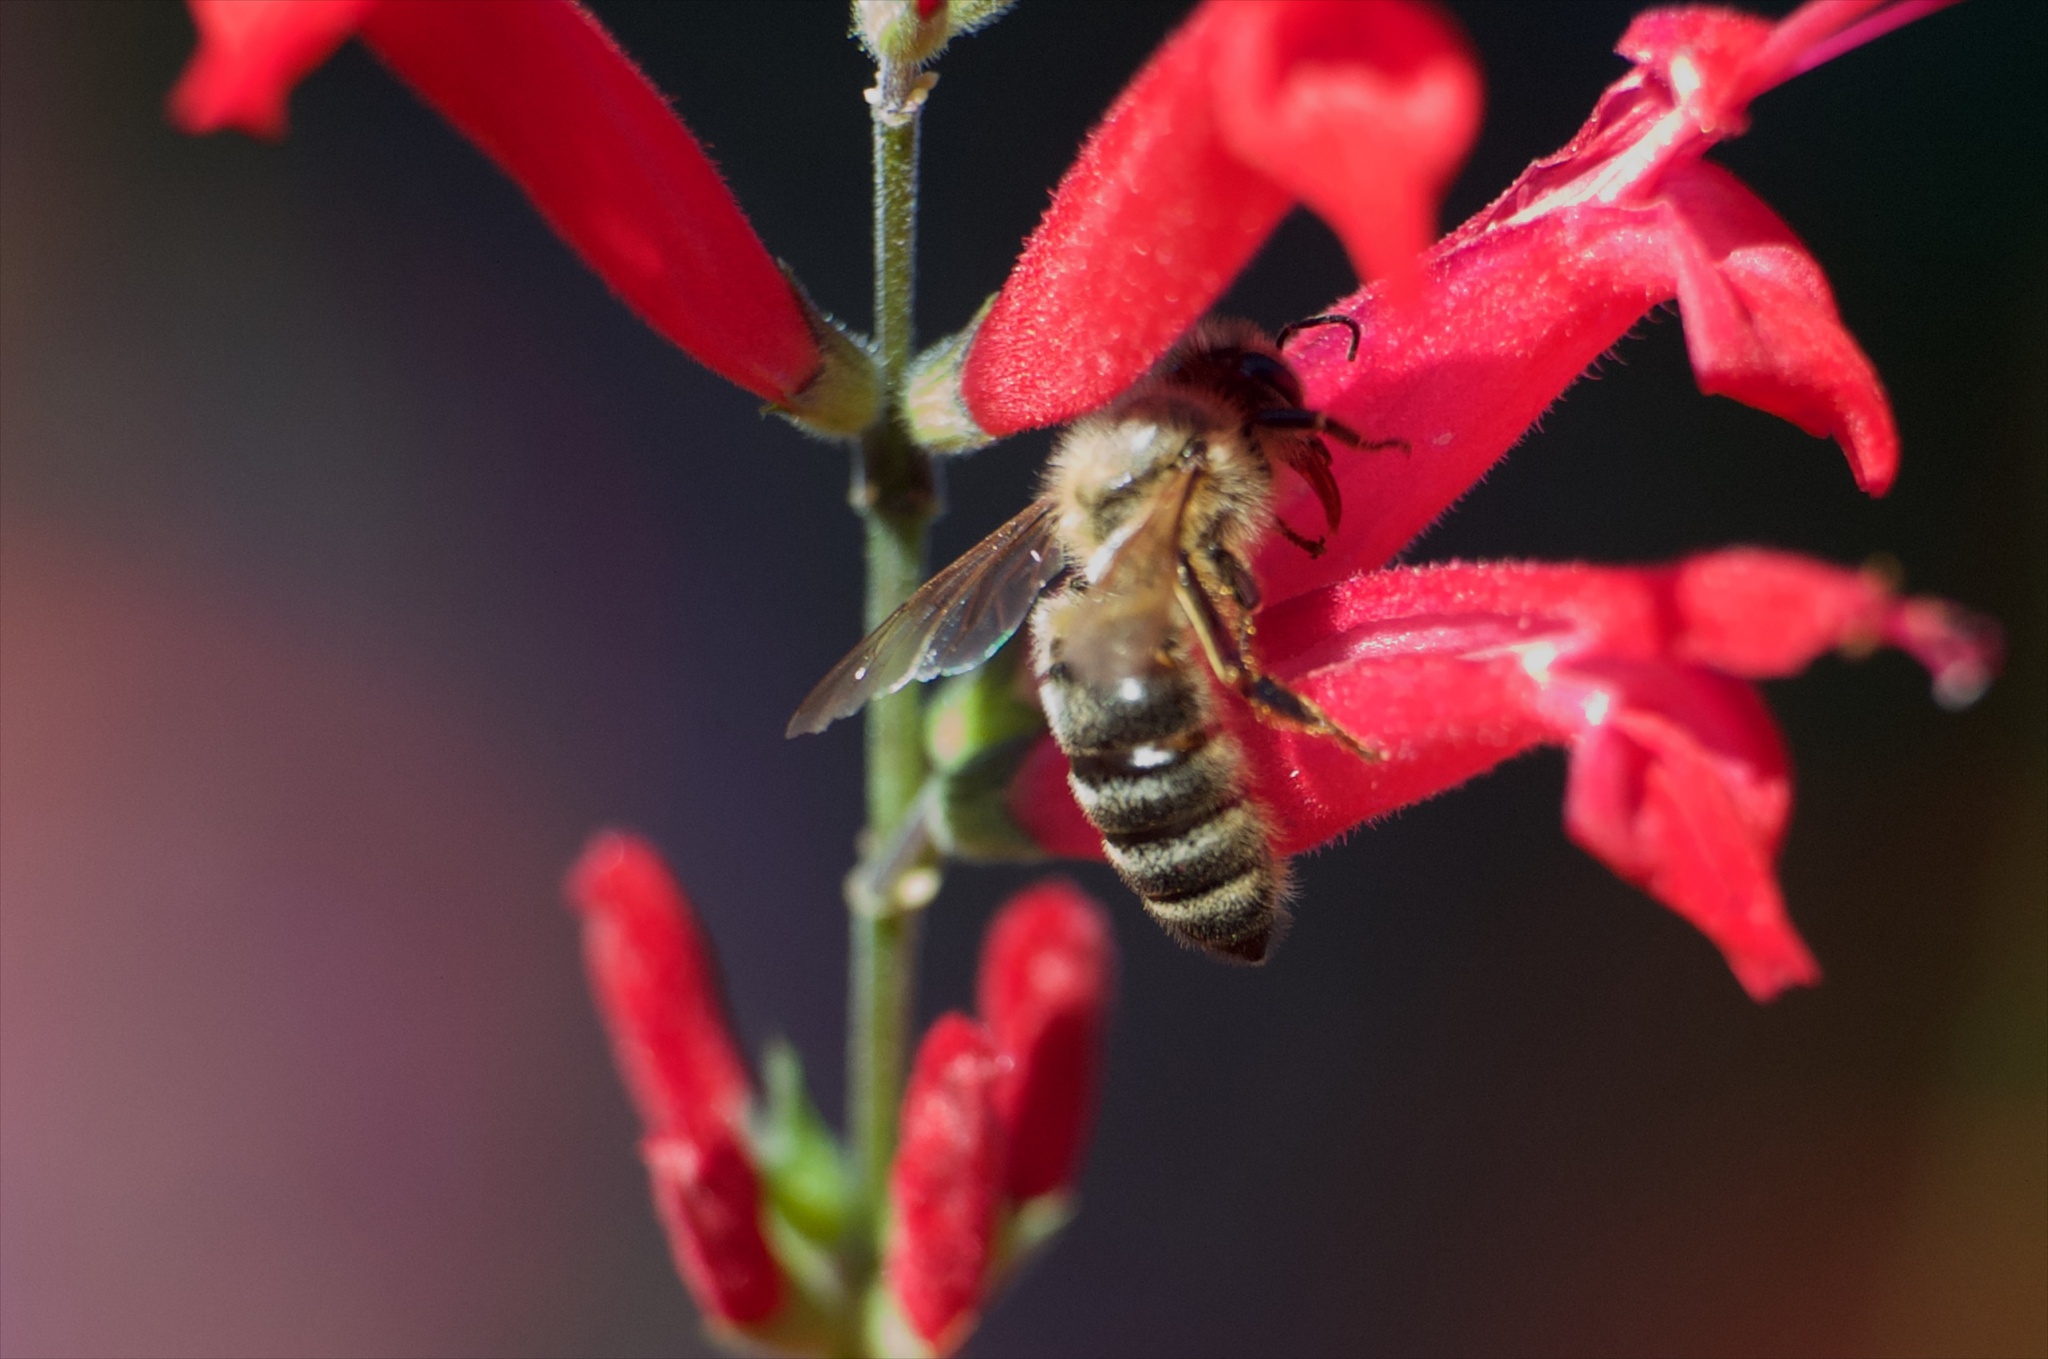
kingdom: Animalia
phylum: Arthropoda
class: Insecta
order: Hymenoptera
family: Apidae
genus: Apis
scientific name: Apis mellifera
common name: Honey bee
